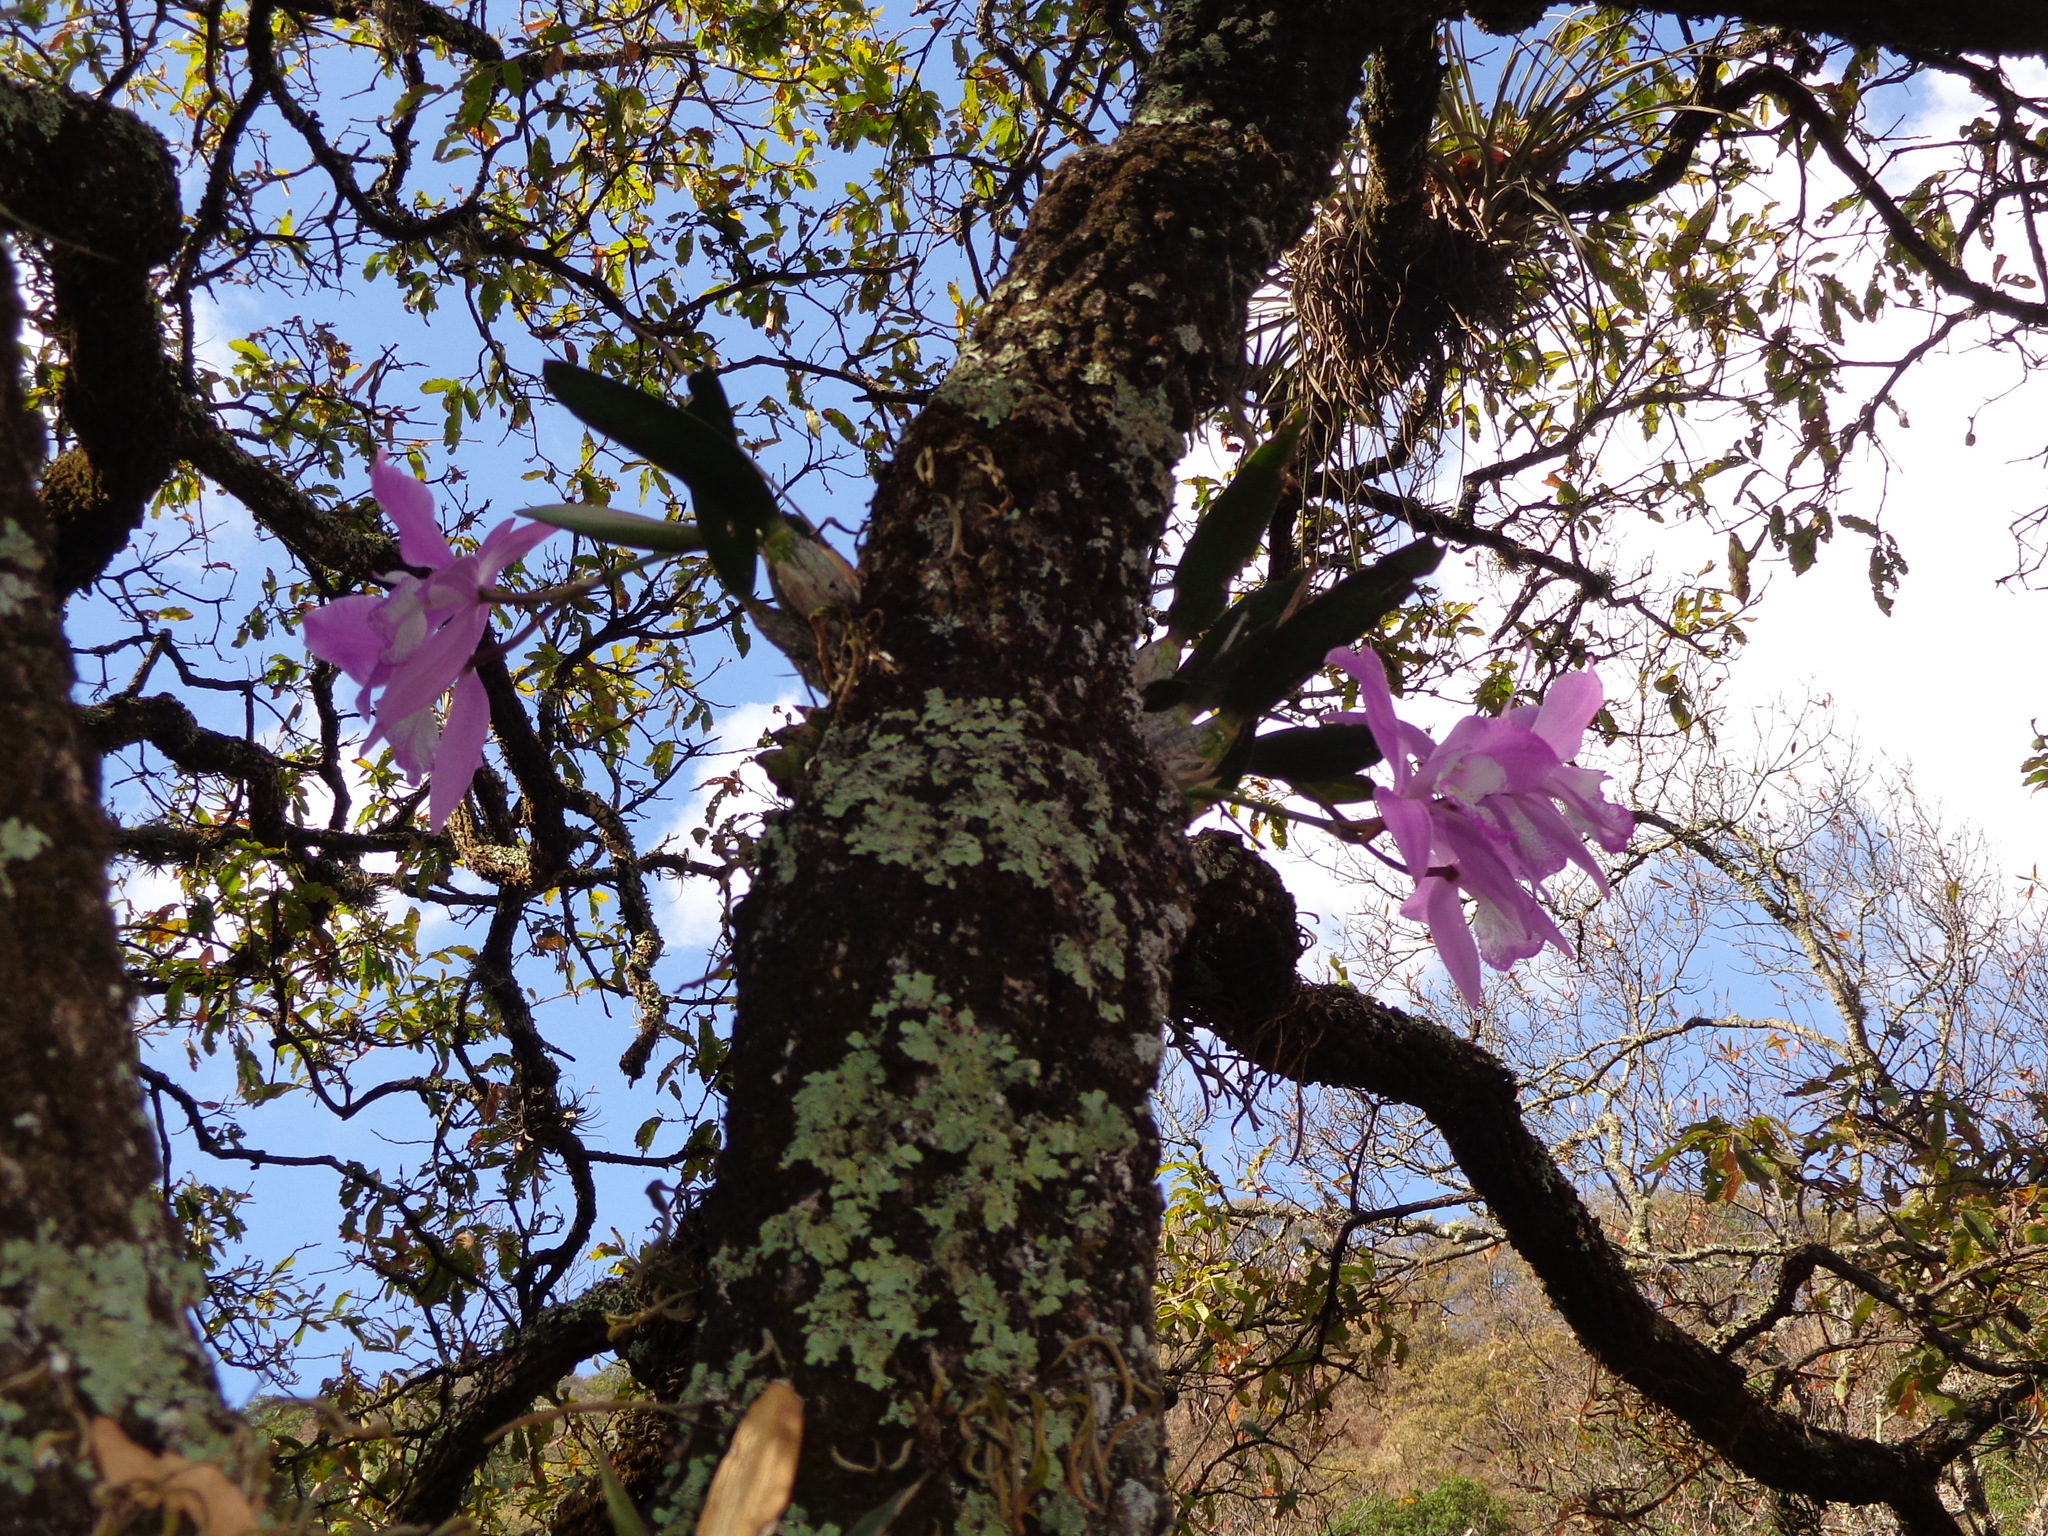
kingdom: Plantae
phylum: Tracheophyta
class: Liliopsida
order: Asparagales
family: Orchidaceae
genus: Laelia
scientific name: Laelia speciosa
